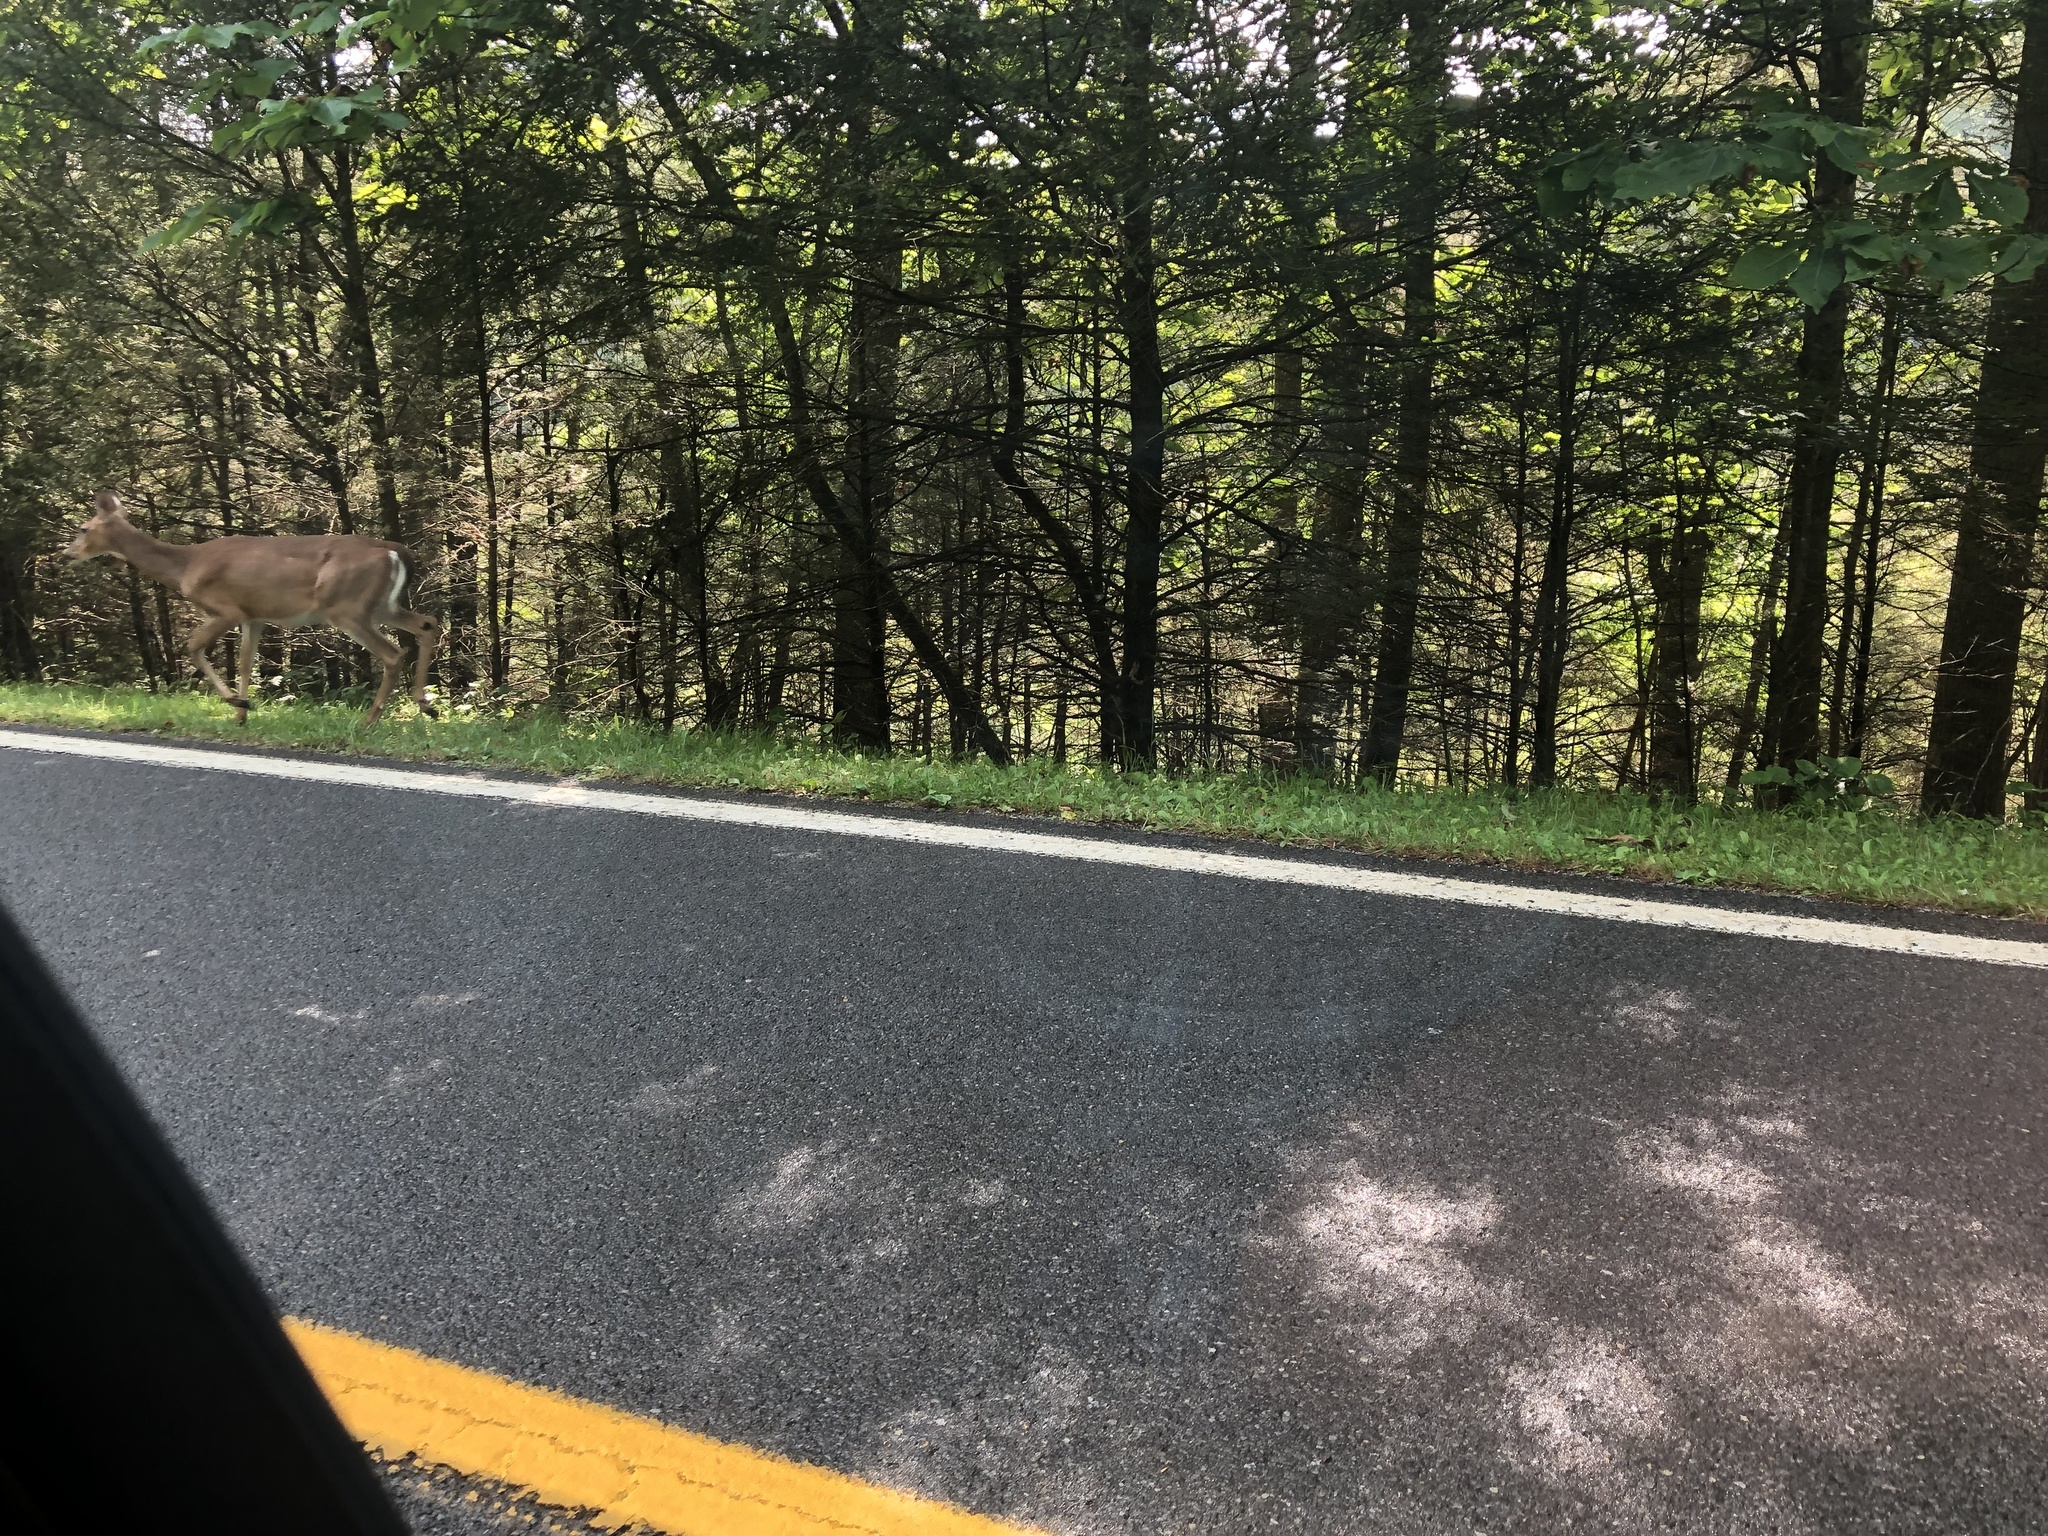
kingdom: Animalia
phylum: Chordata
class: Mammalia
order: Artiodactyla
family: Cervidae
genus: Odocoileus
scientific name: Odocoileus virginianus
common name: White-tailed deer
